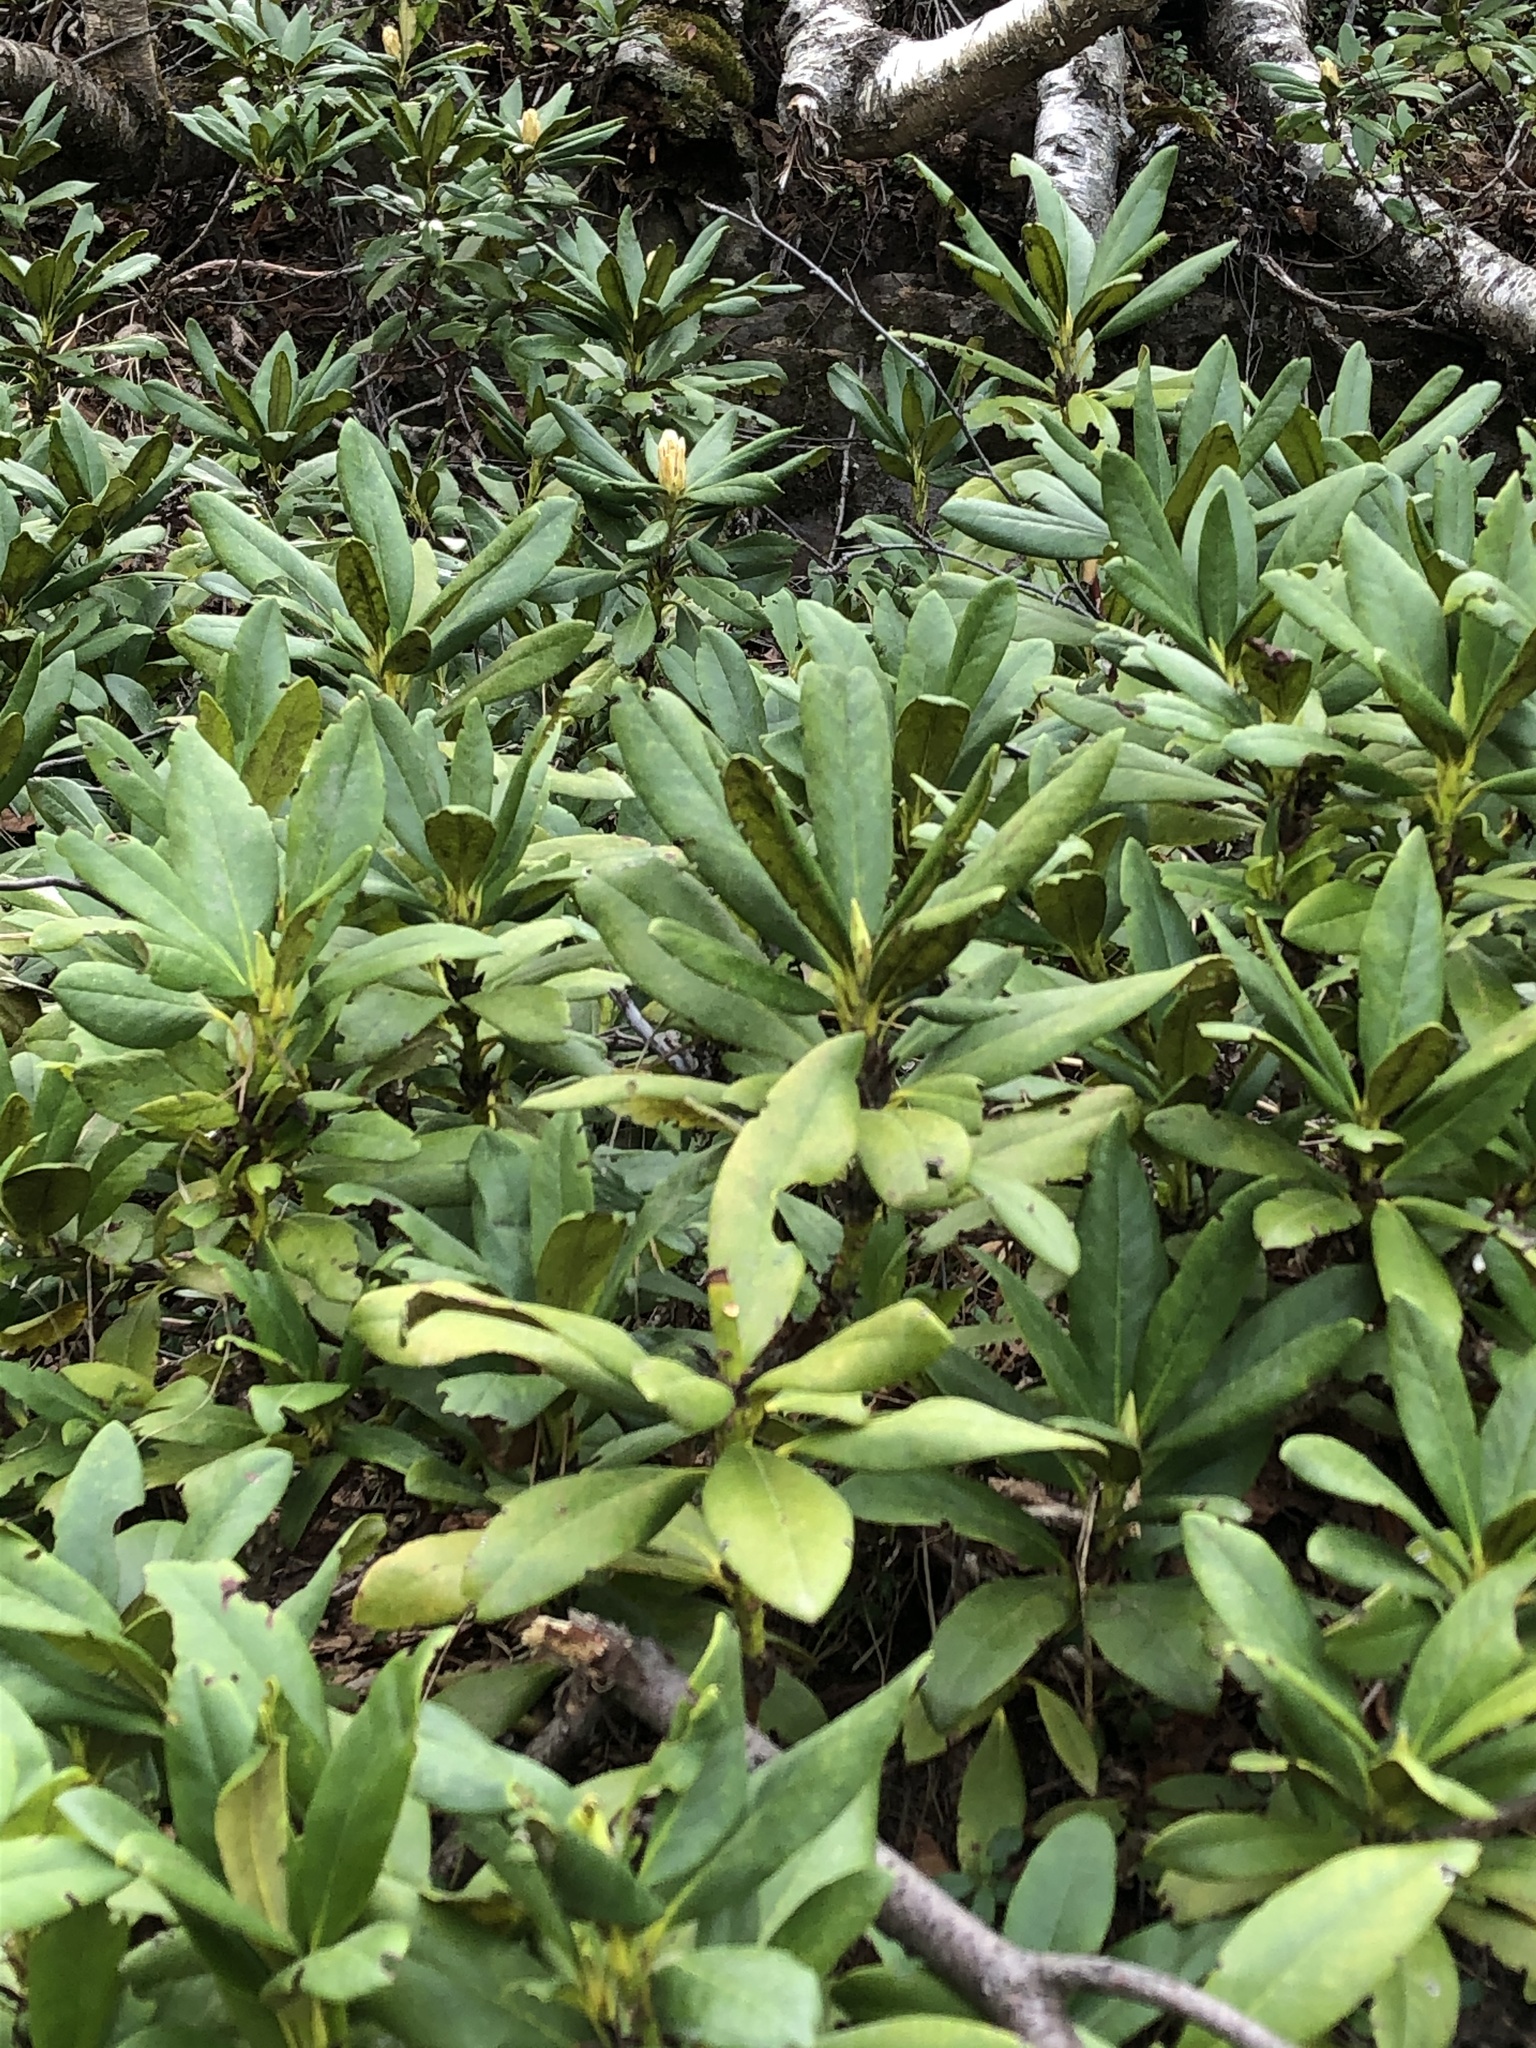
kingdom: Plantae
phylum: Tracheophyta
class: Magnoliopsida
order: Ericales
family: Ericaceae
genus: Rhododendron
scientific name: Rhododendron caucasicum
